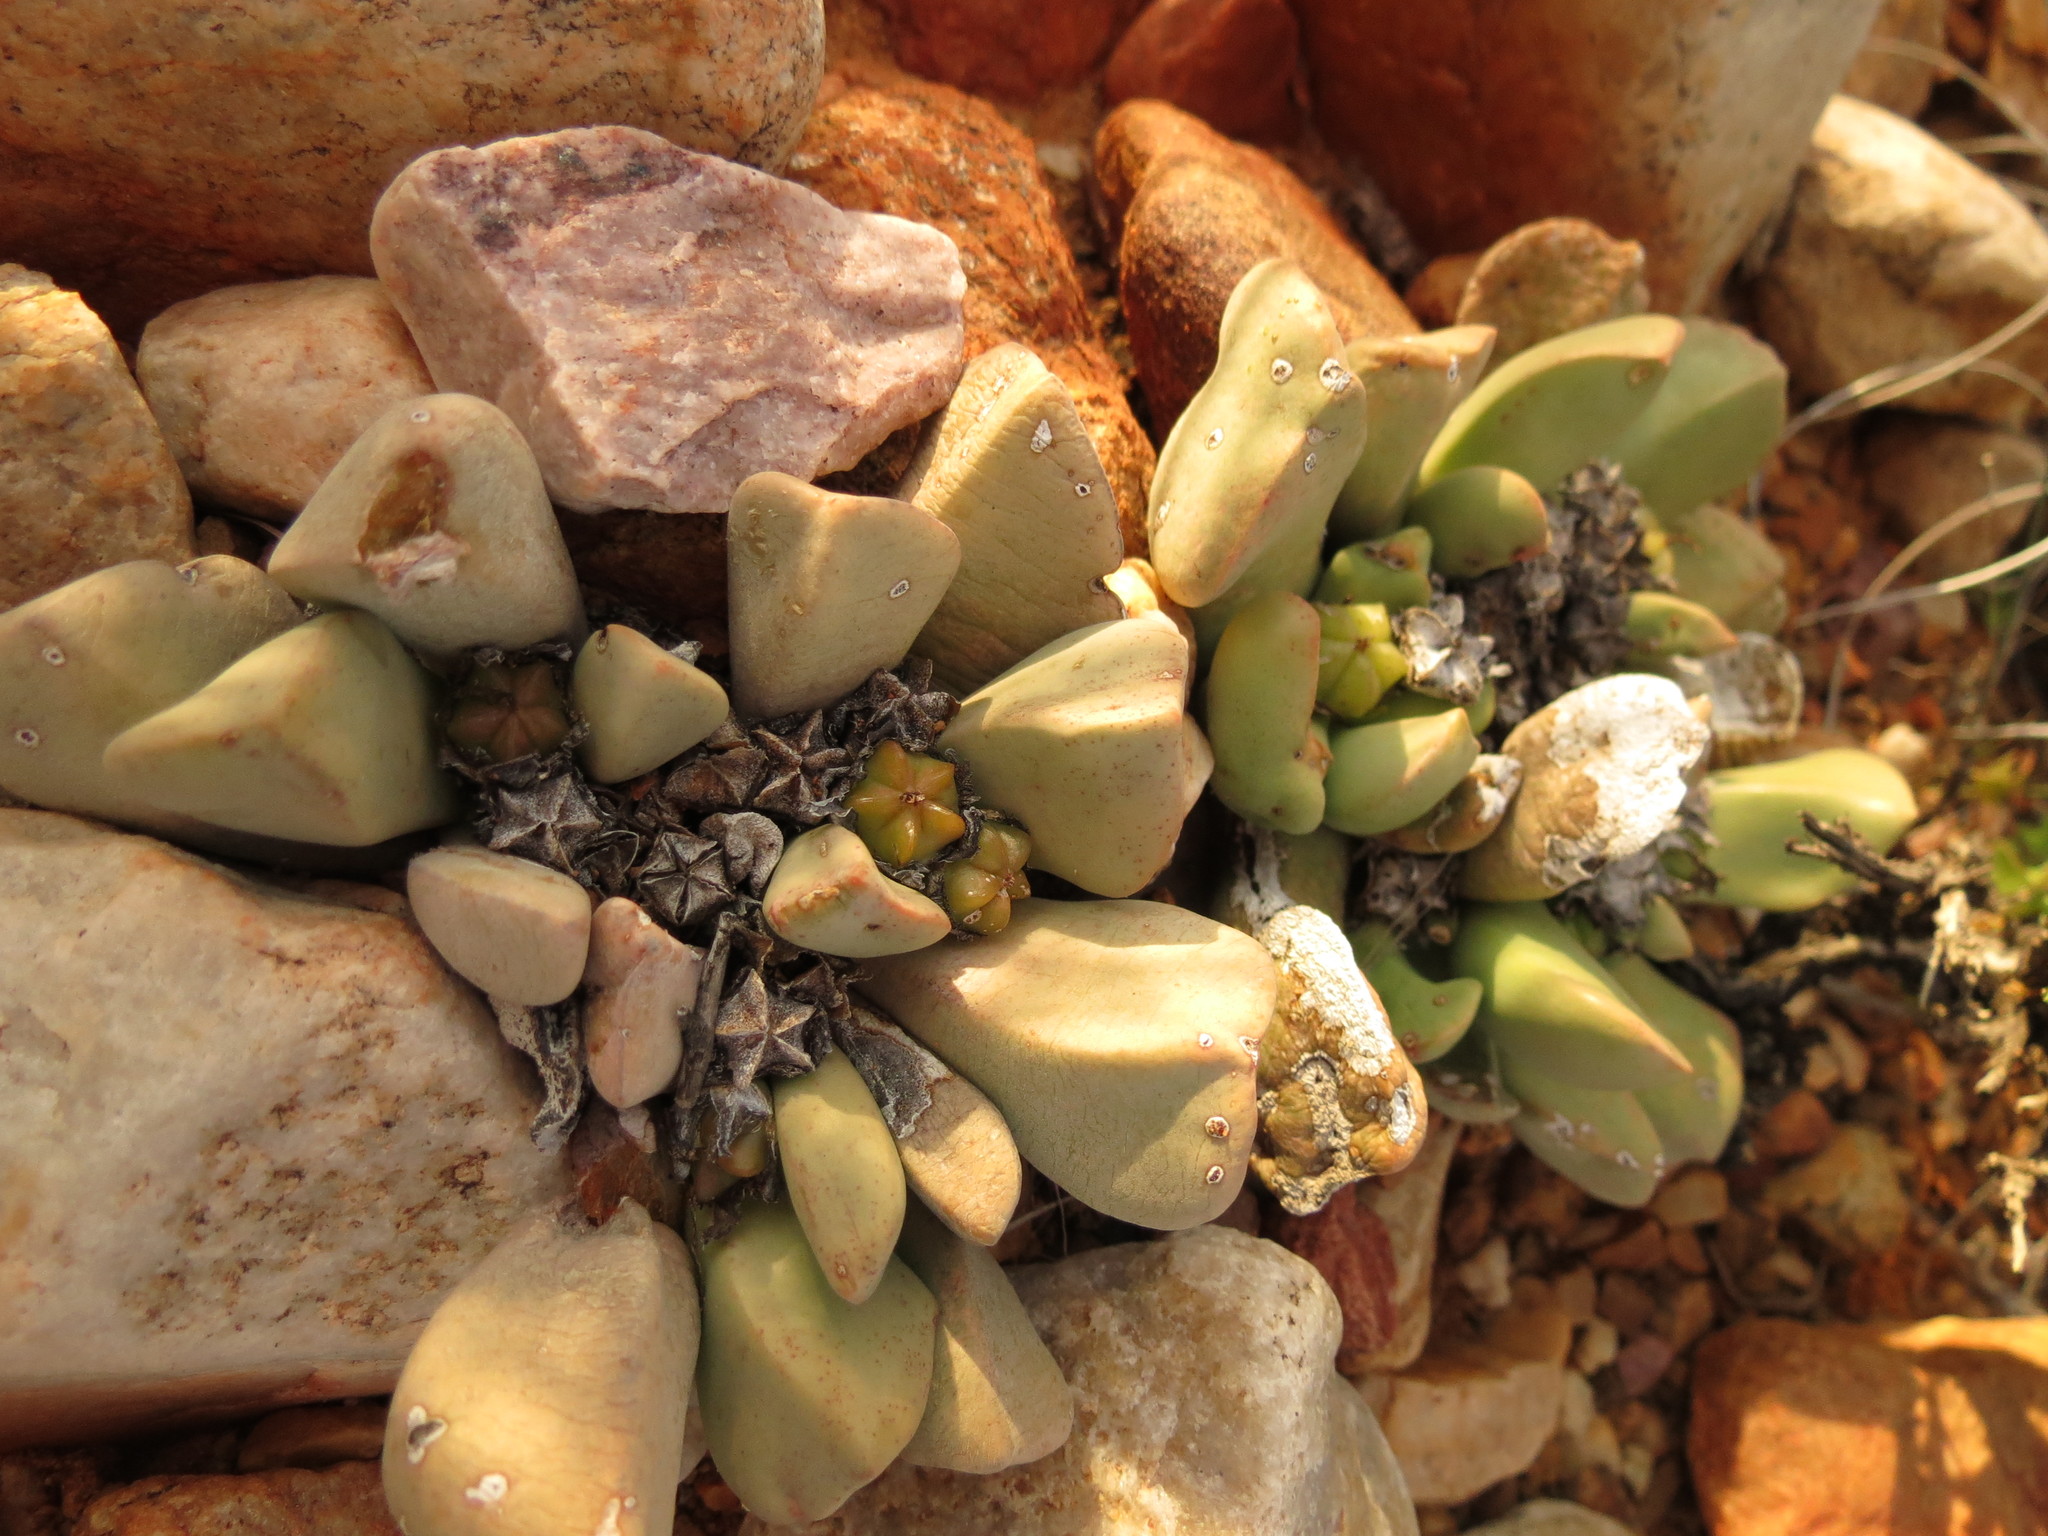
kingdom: Plantae
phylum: Tracheophyta
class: Magnoliopsida
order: Caryophyllales
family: Aizoaceae
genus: Bijlia
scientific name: Bijlia dilatata
